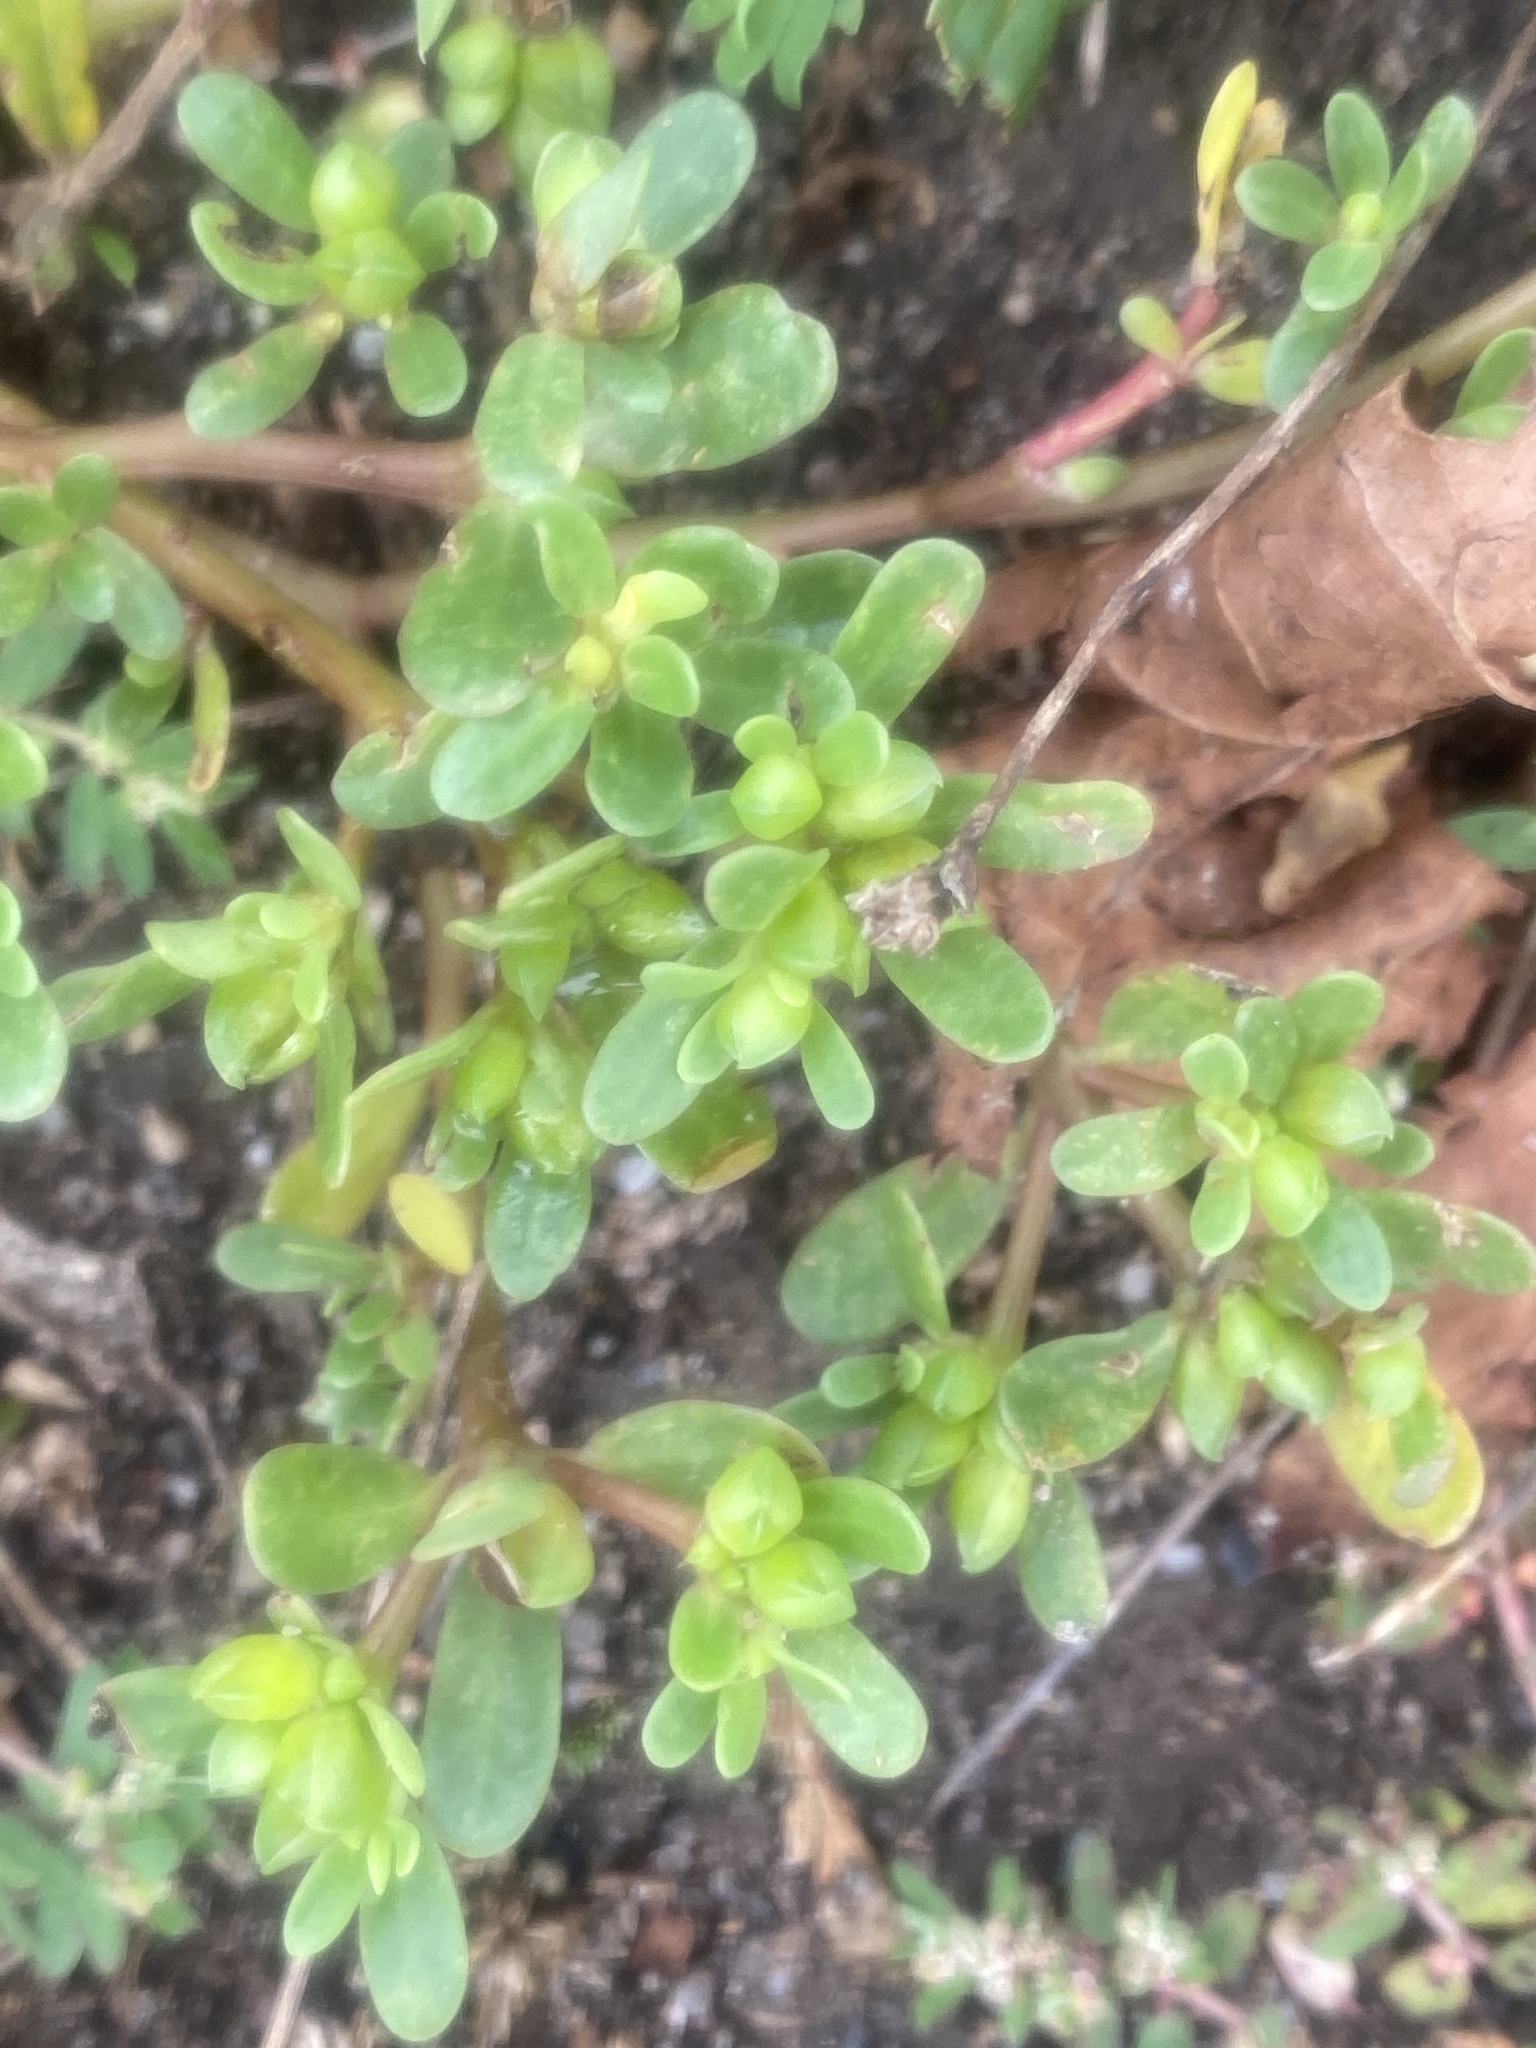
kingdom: Plantae
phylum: Tracheophyta
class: Magnoliopsida
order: Caryophyllales
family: Portulacaceae
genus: Portulaca
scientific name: Portulaca oleracea
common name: Common purslane
